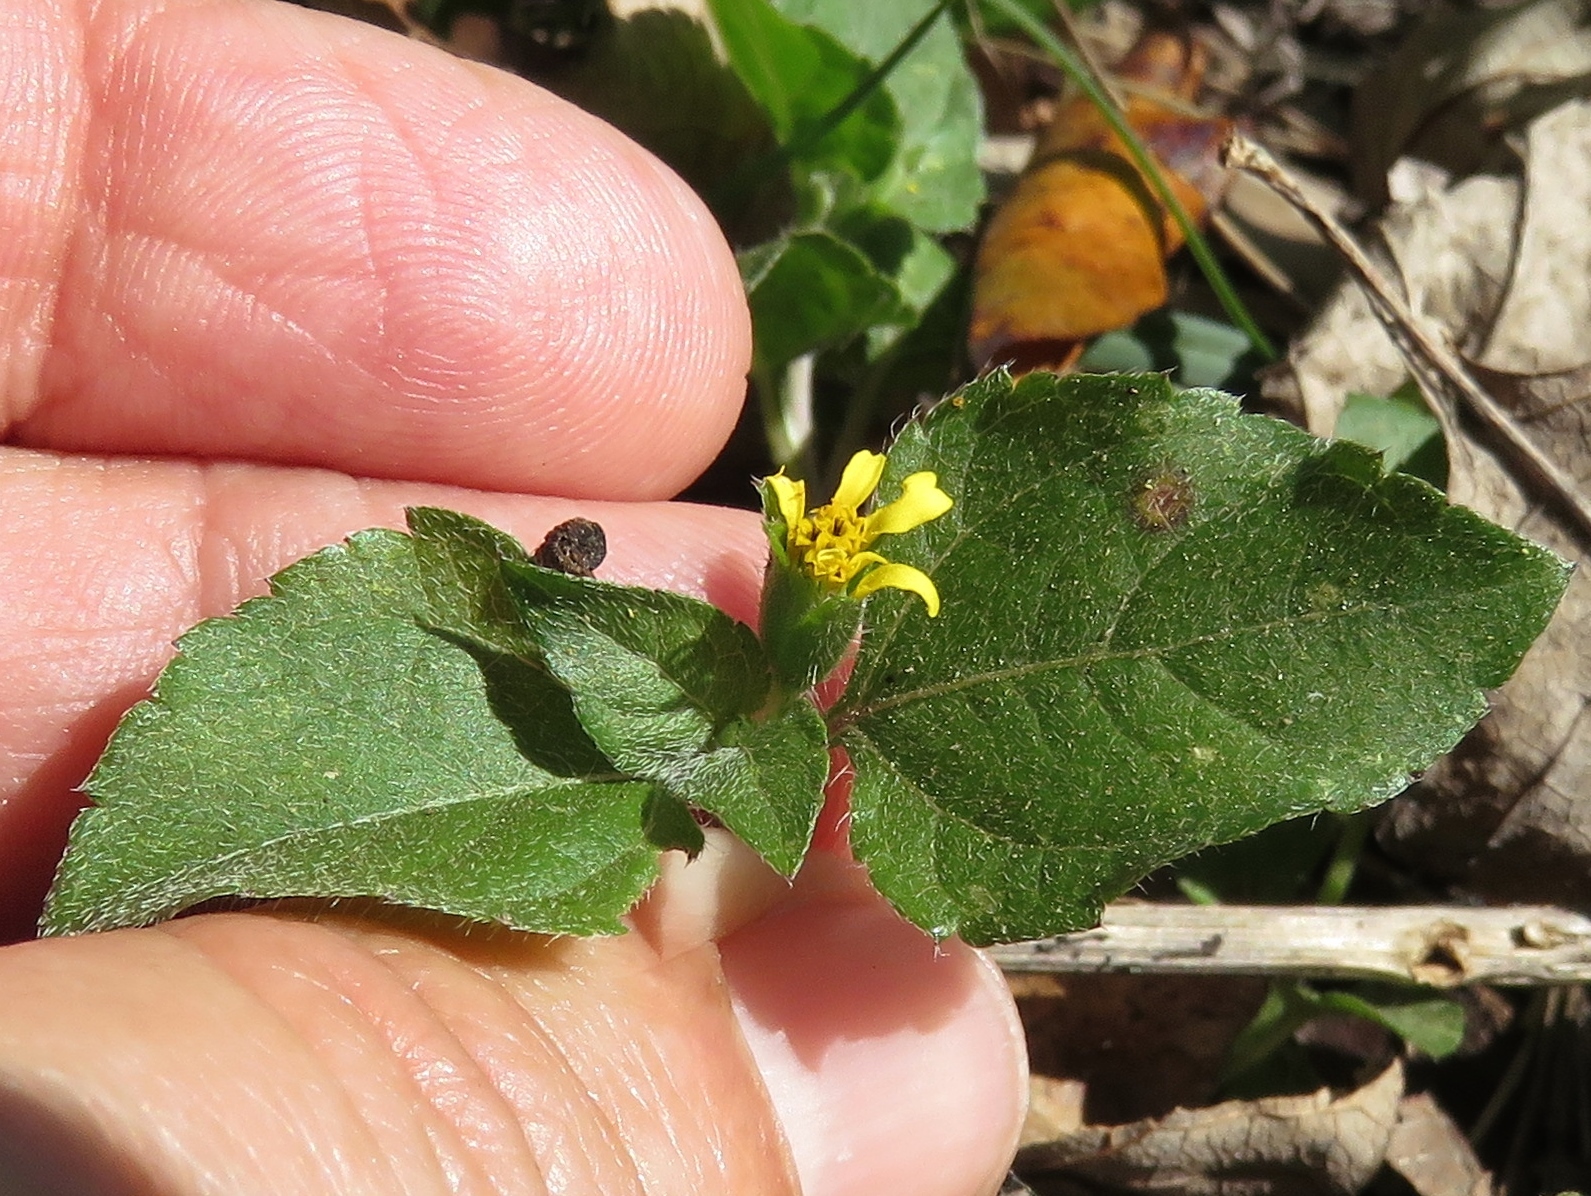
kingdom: Plantae
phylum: Tracheophyta
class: Magnoliopsida
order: Asterales
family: Asteraceae
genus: Calyptocarpus
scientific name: Calyptocarpus vialis
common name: Straggler daisy
